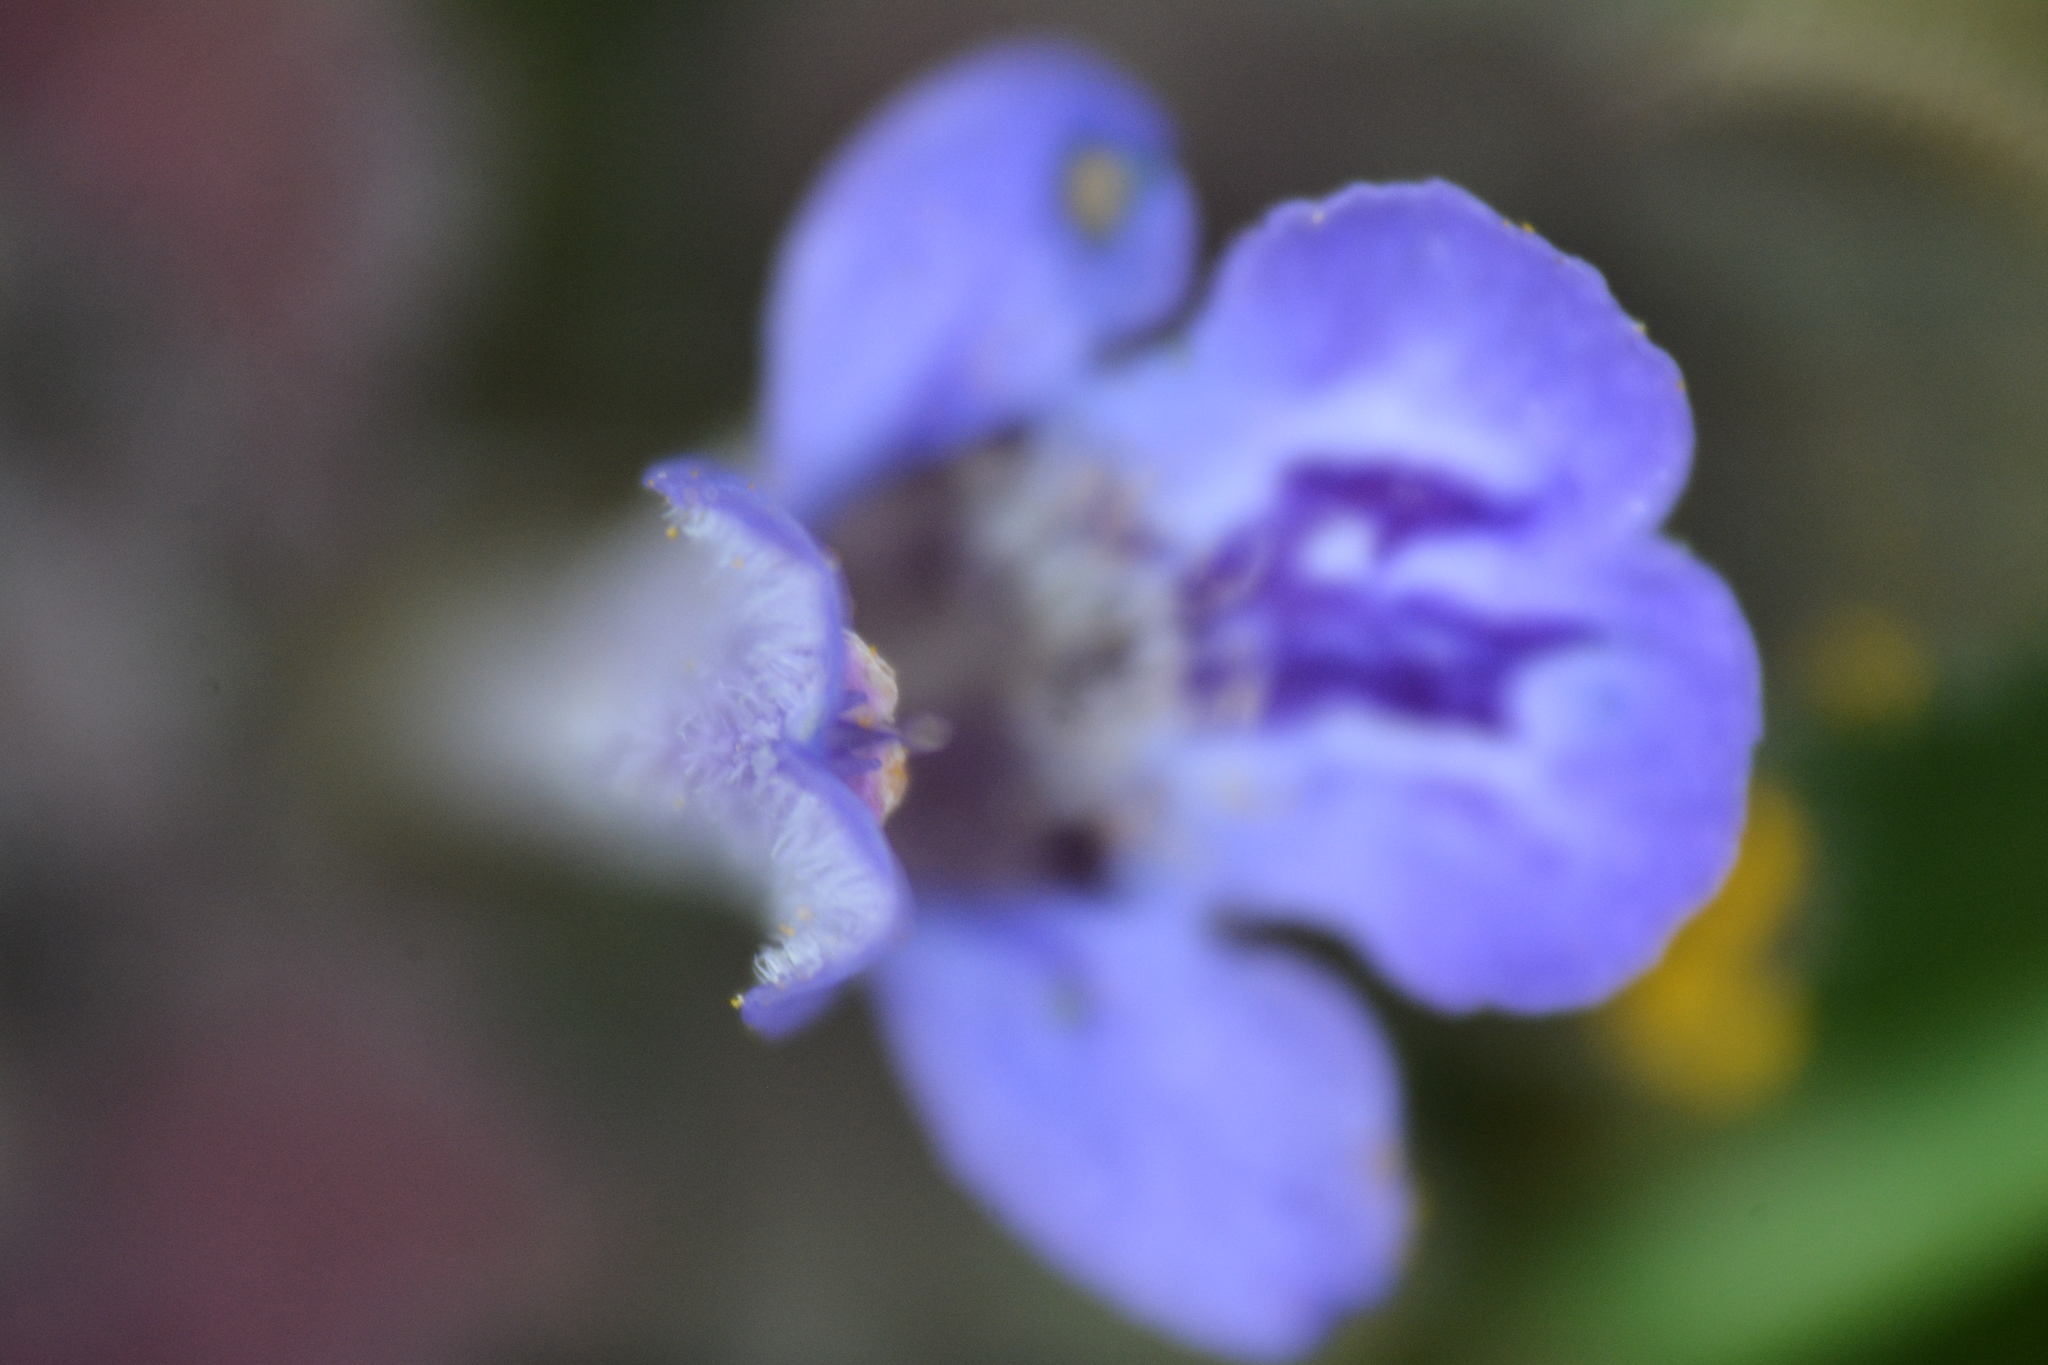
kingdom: Plantae
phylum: Tracheophyta
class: Magnoliopsida
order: Lamiales
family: Lamiaceae
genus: Glechoma
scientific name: Glechoma hederacea
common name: Ground ivy
